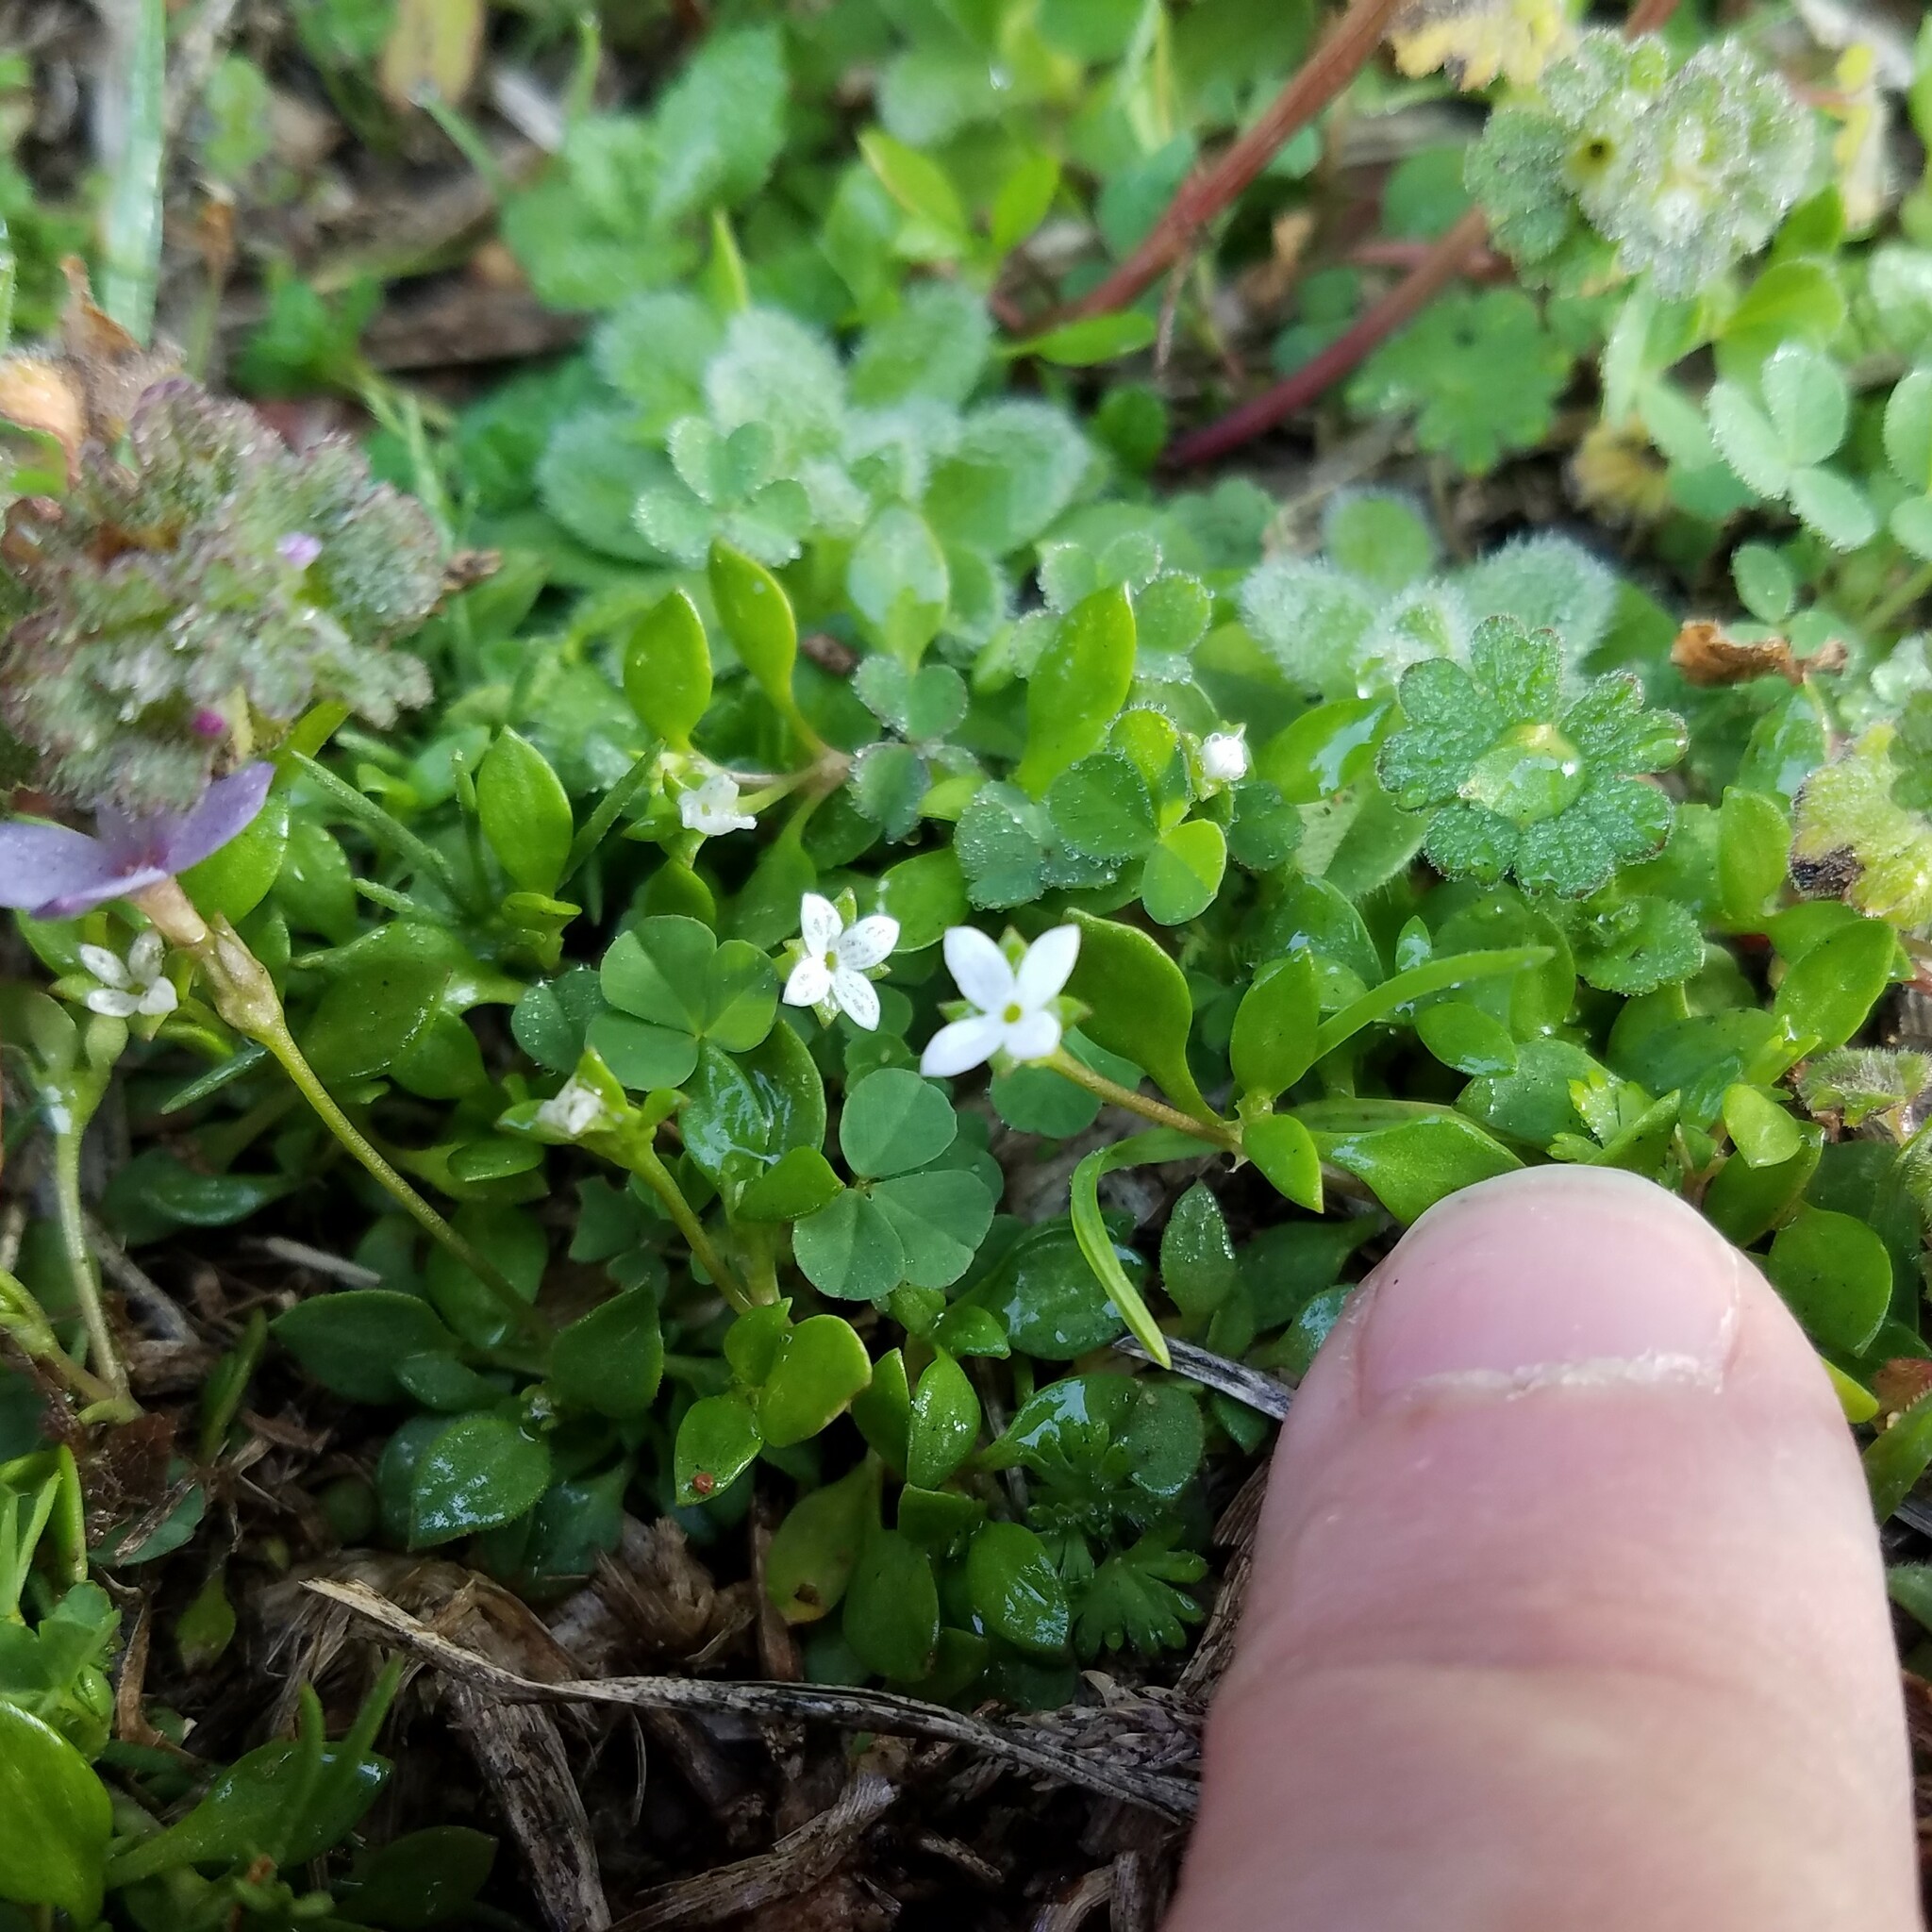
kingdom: Plantae
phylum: Tracheophyta
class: Magnoliopsida
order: Gentianales
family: Rubiaceae
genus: Houstonia
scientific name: Houstonia micrantha
